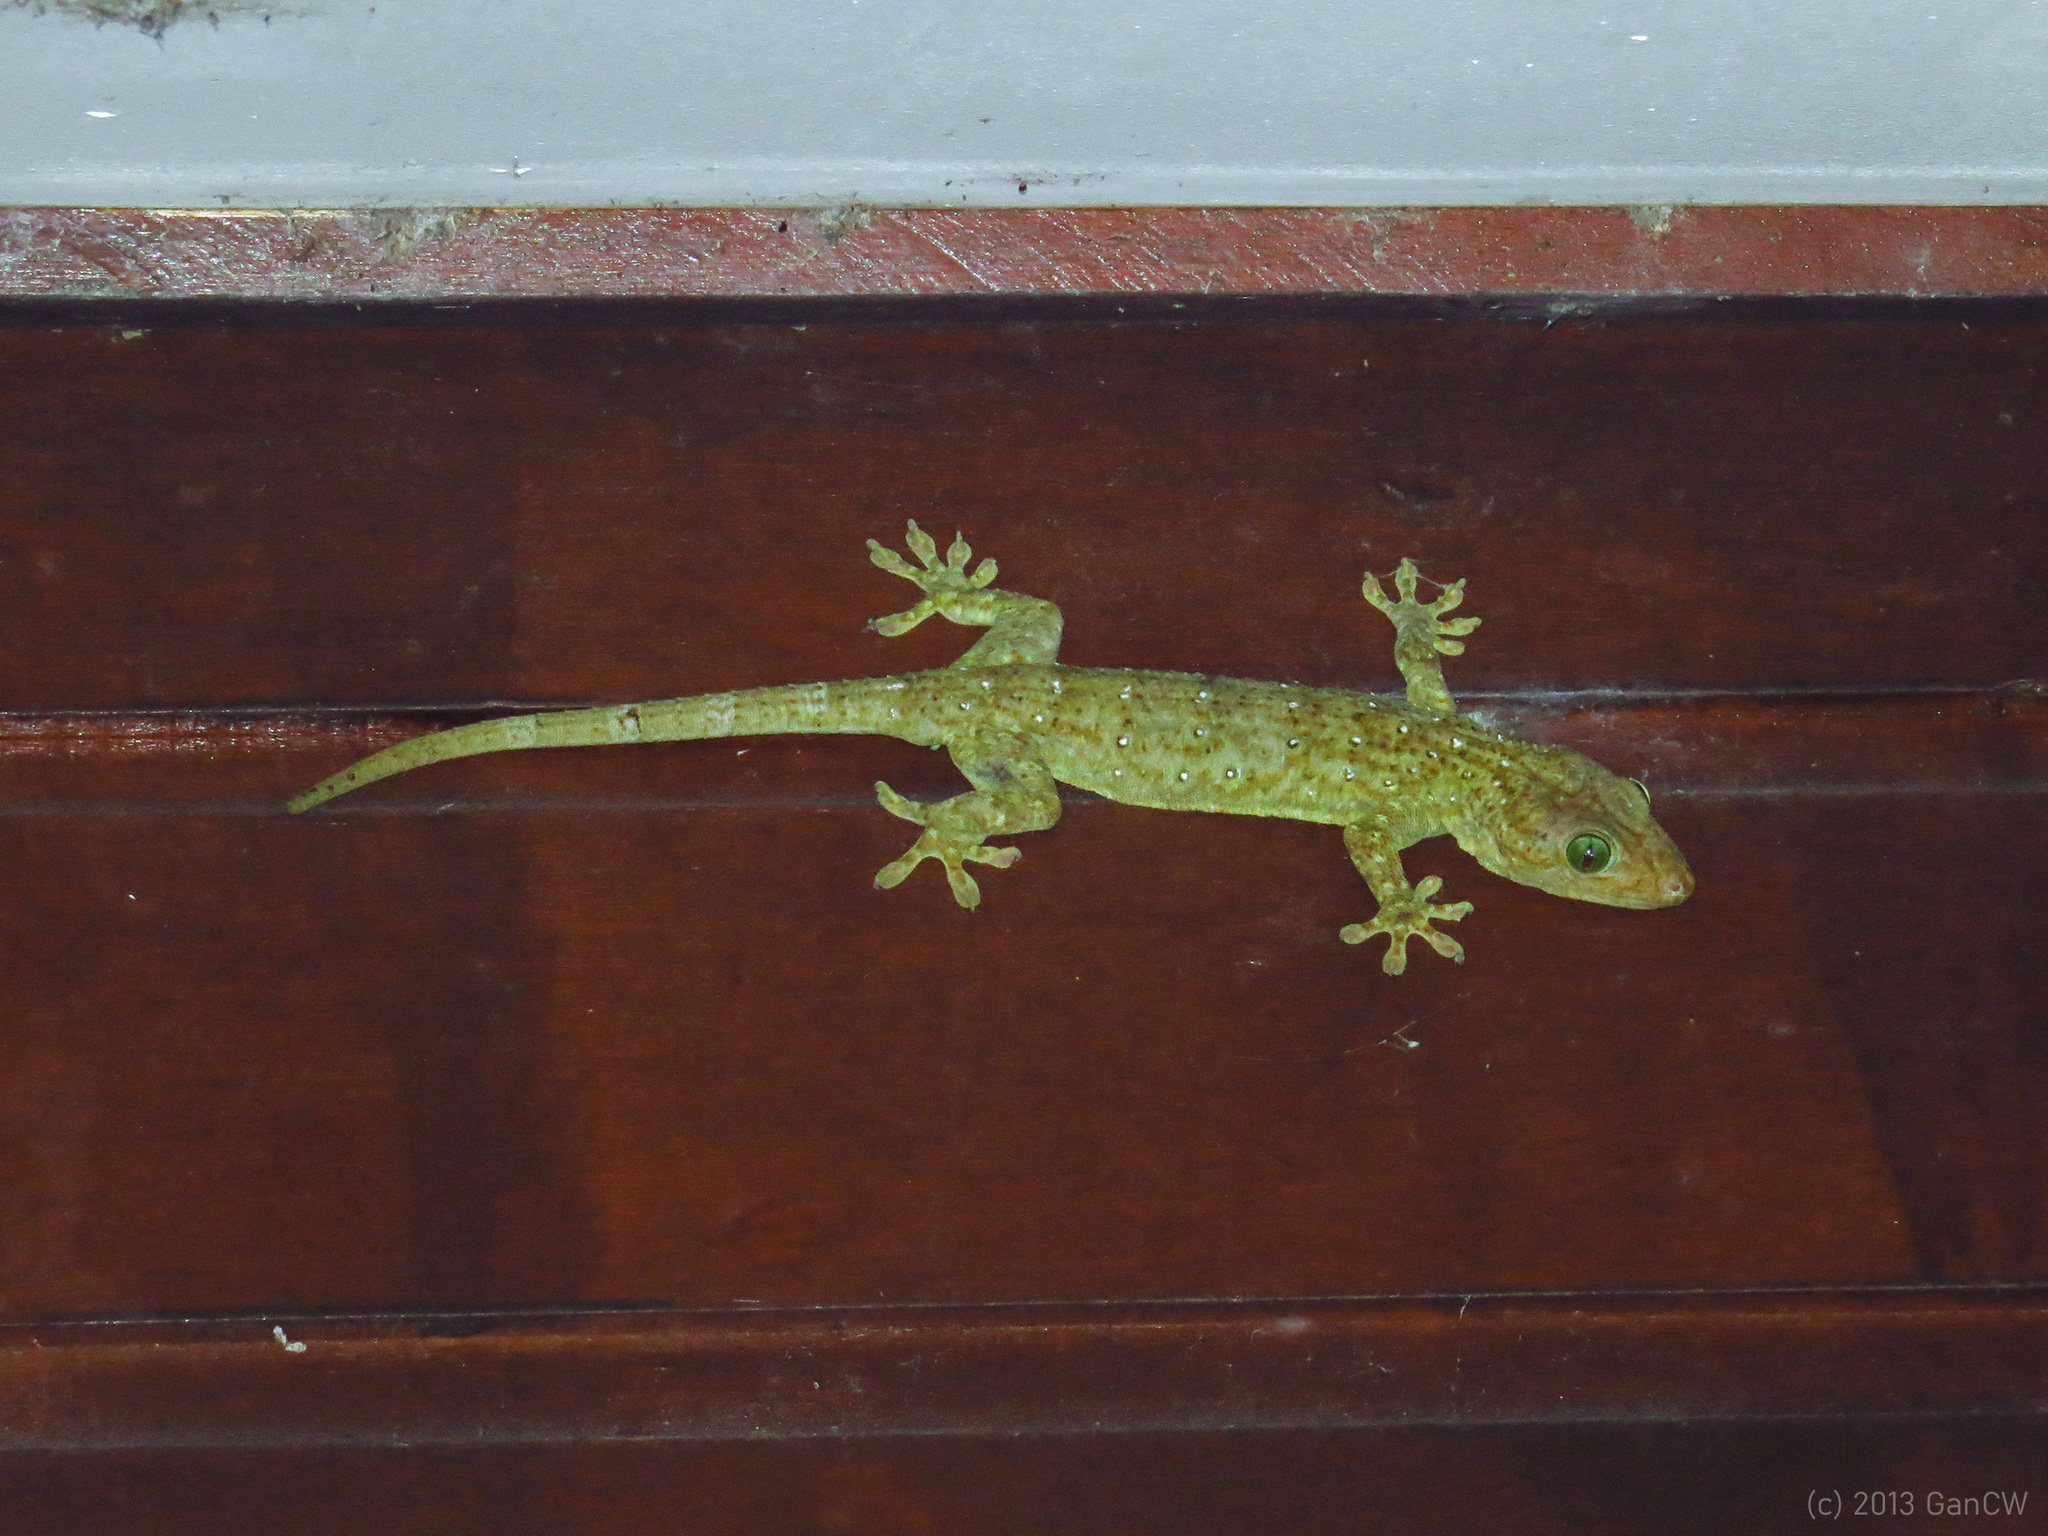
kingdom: Animalia
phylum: Chordata
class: Squamata
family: Gekkonidae
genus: Gekko
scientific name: Gekko albofasciolatus
